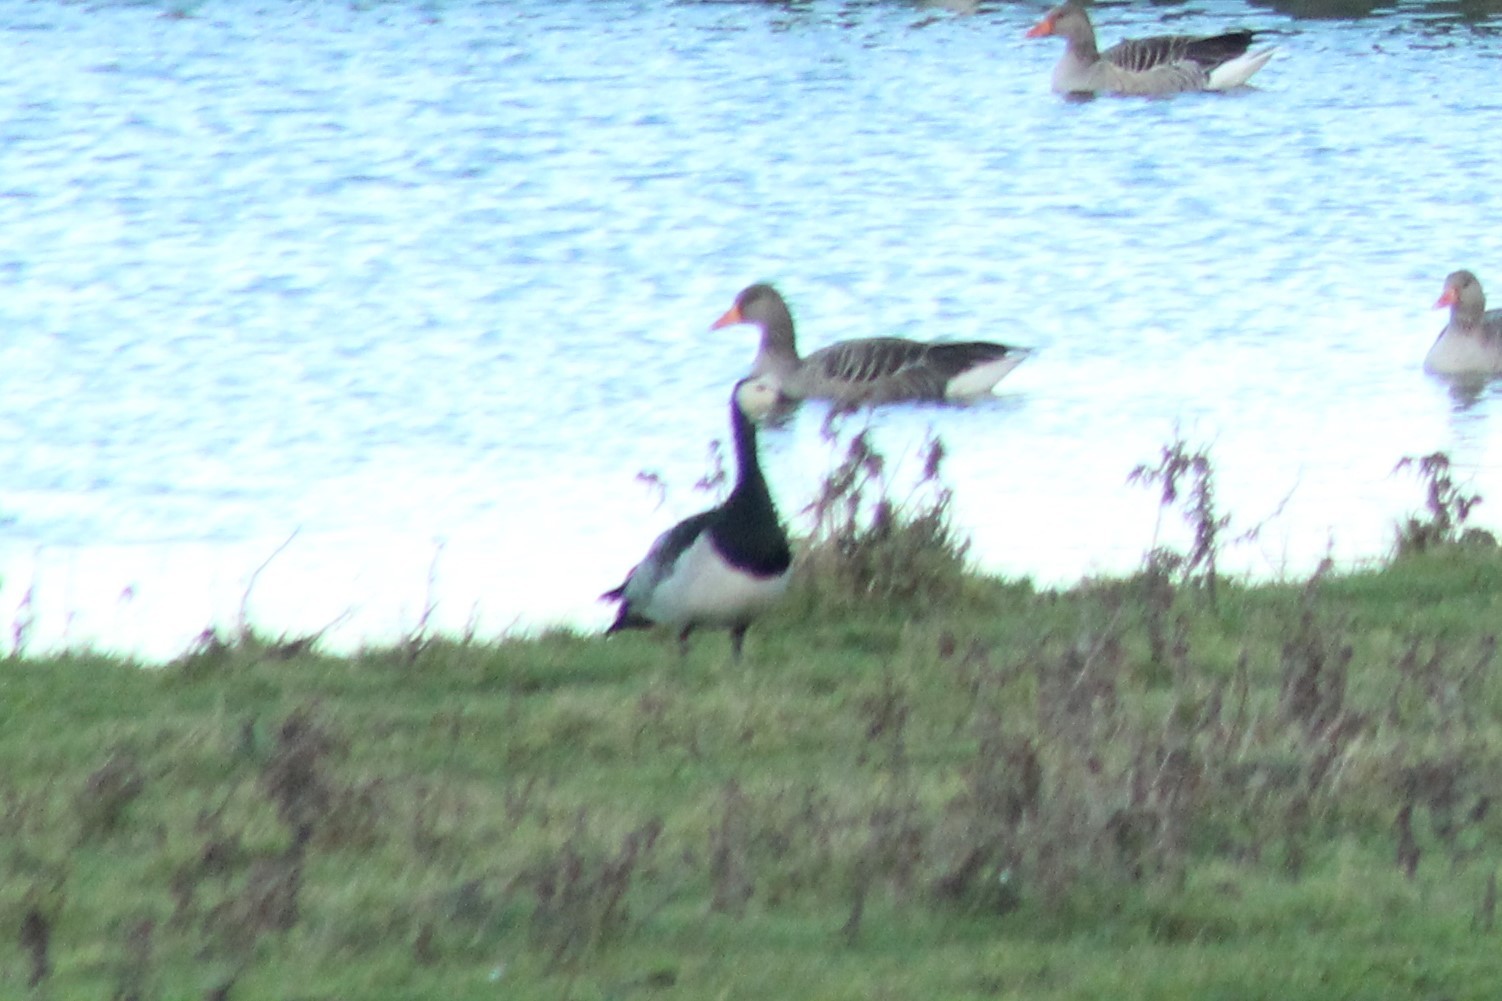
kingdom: Animalia
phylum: Chordata
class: Aves
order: Anseriformes
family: Anatidae
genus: Branta
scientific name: Branta leucopsis
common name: Barnacle goose
